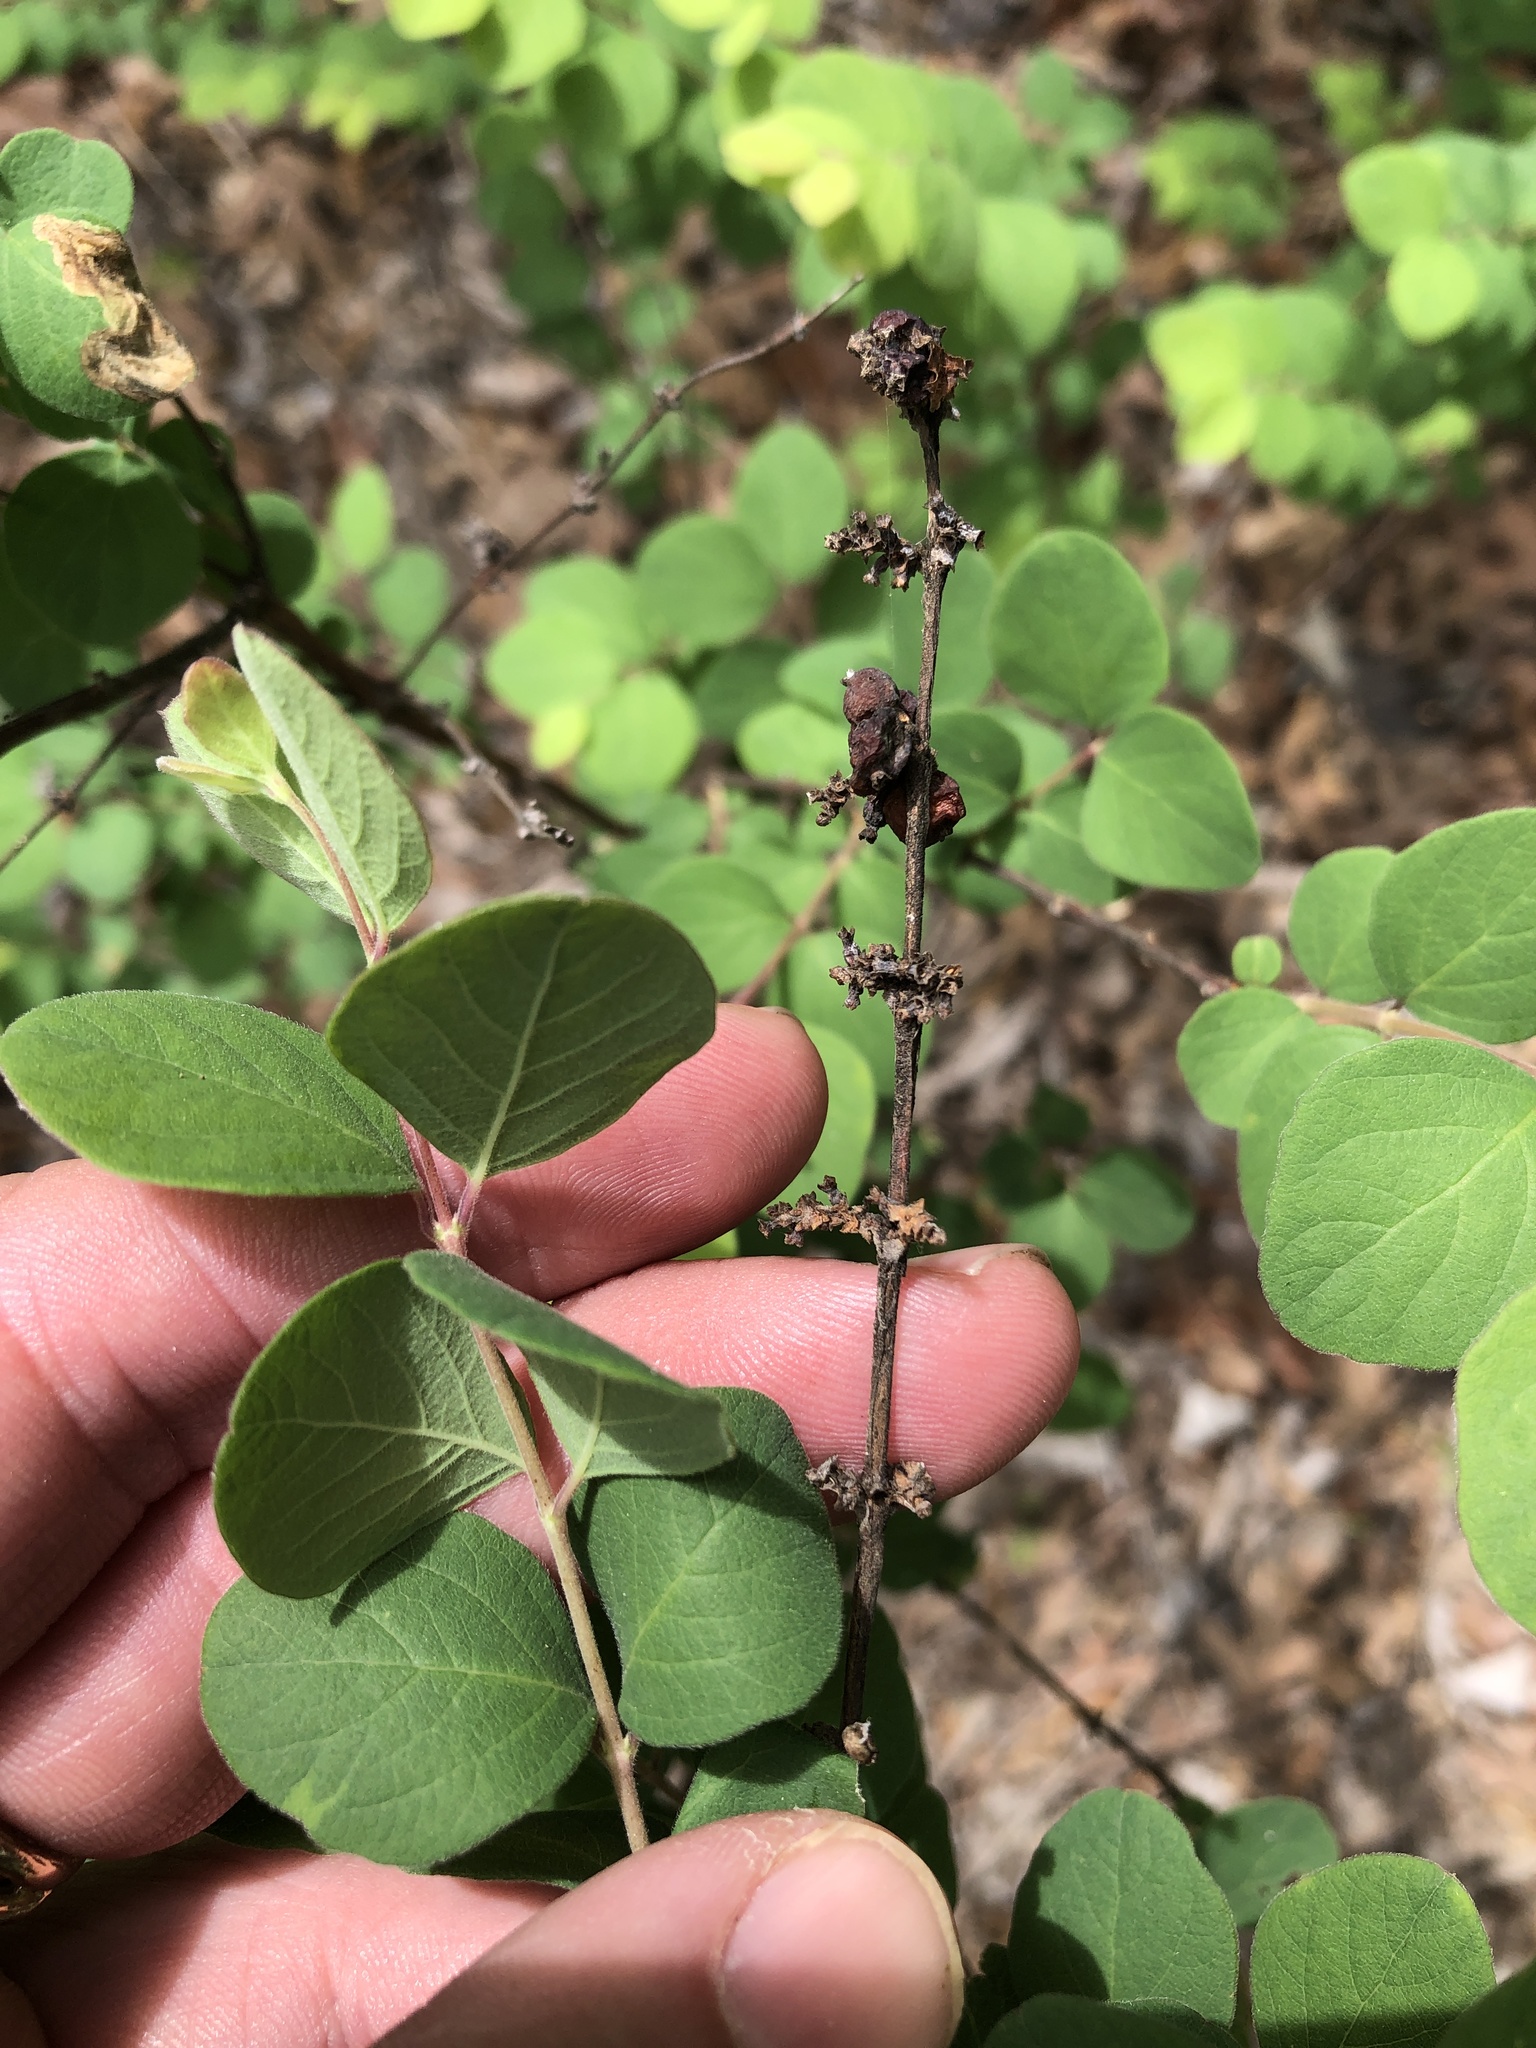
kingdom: Plantae
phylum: Tracheophyta
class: Magnoliopsida
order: Dipsacales
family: Caprifoliaceae
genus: Symphoricarpos
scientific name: Symphoricarpos orbiculatus
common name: Coralberry
